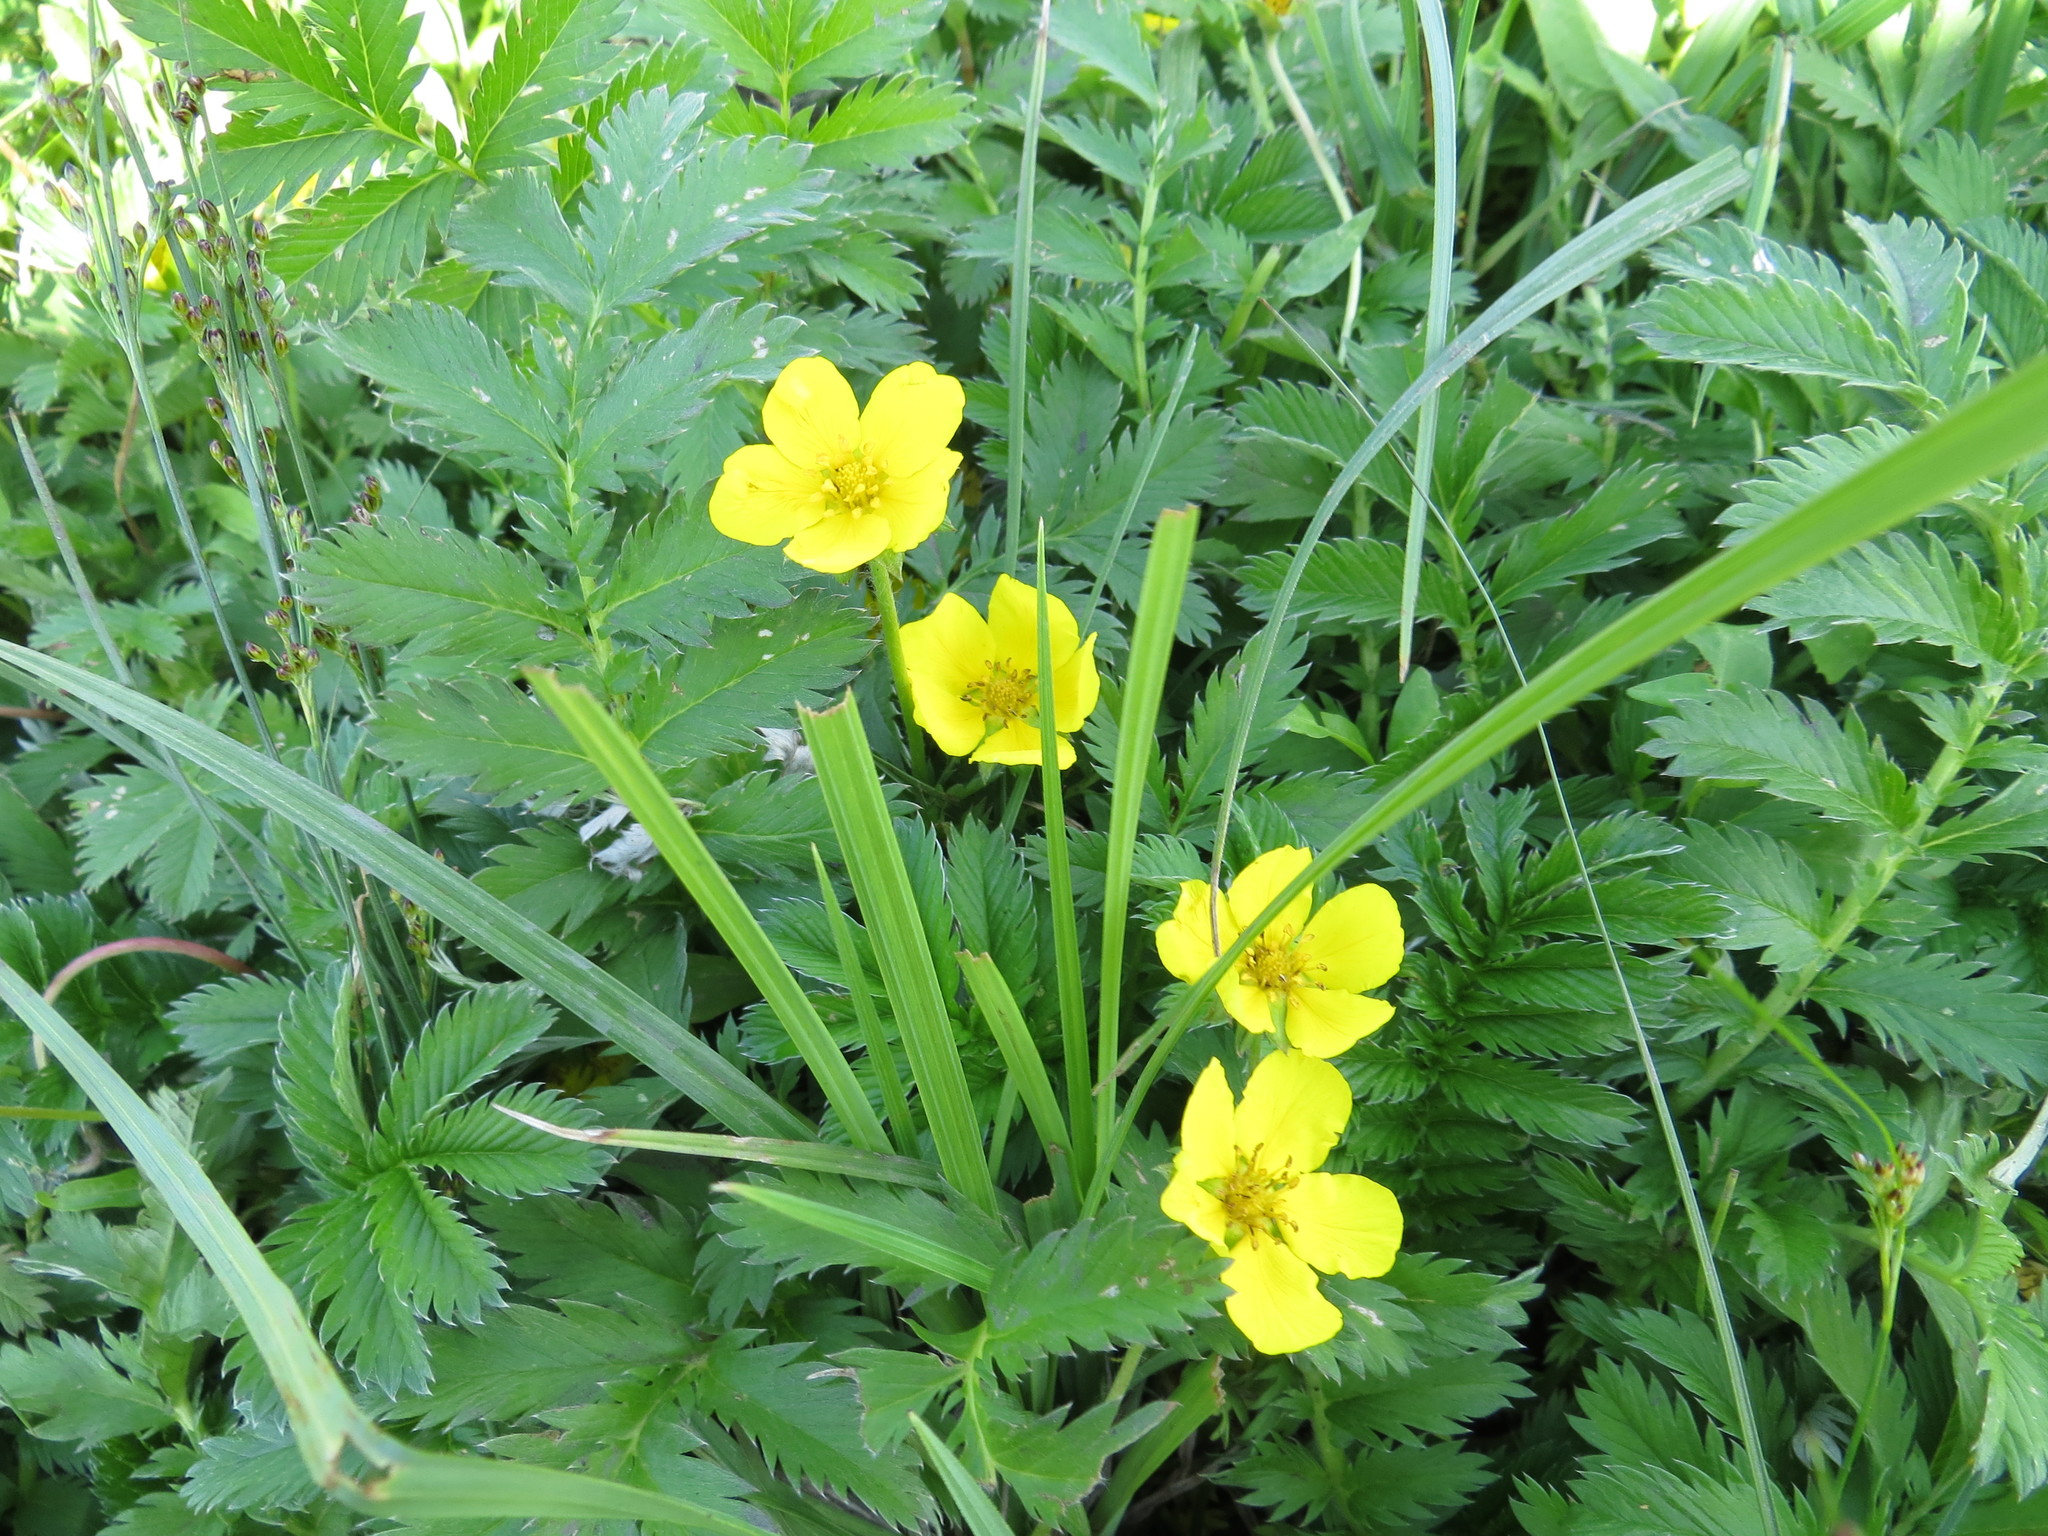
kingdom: Plantae
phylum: Tracheophyta
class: Magnoliopsida
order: Rosales
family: Rosaceae
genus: Argentina
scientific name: Argentina anserina
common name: Common silverweed
